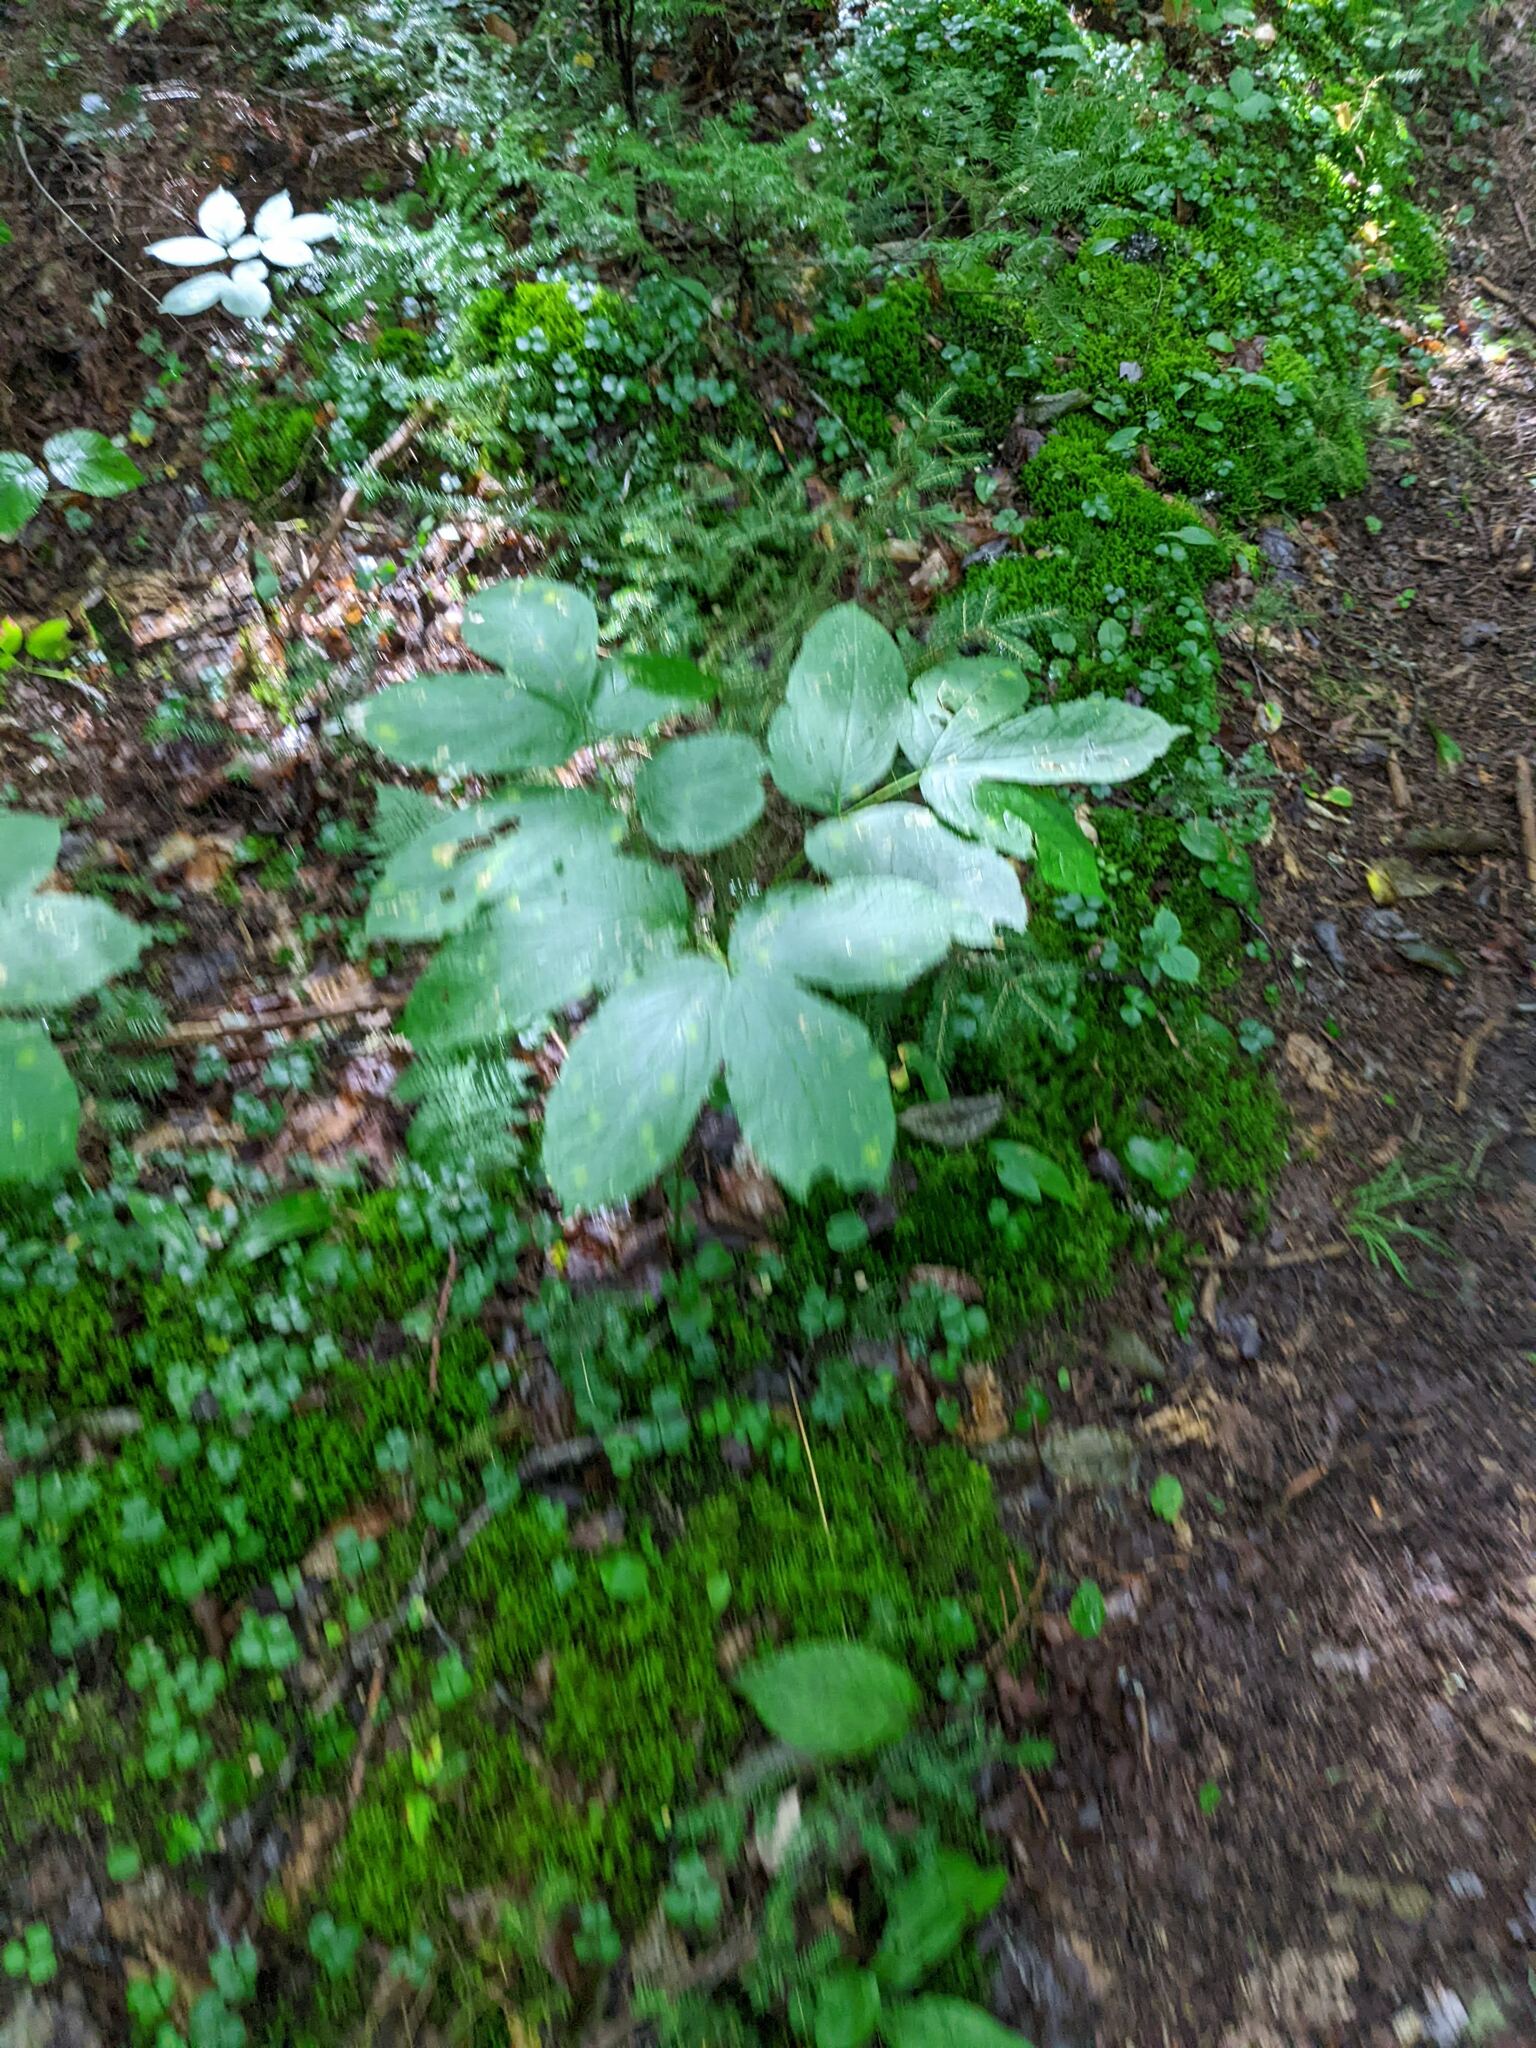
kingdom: Plantae
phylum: Tracheophyta
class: Magnoliopsida
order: Apiales
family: Araliaceae
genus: Aralia
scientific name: Aralia nudicaulis
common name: Wild sarsaparilla
